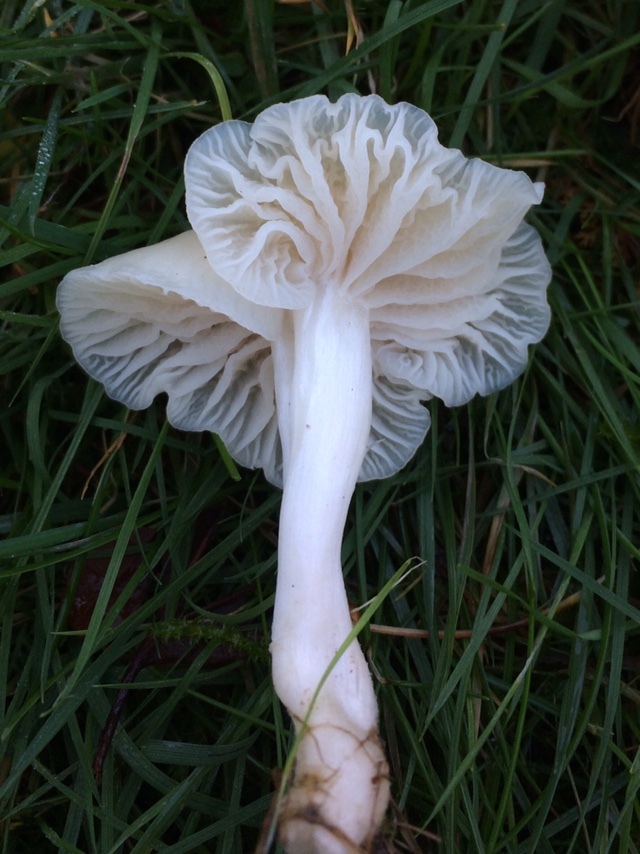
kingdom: Fungi
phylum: Basidiomycota
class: Agaricomycetes
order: Agaricales
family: Hygrophoraceae
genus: Cuphophyllus
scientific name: Cuphophyllus virgineus
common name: Snowy waxcap
